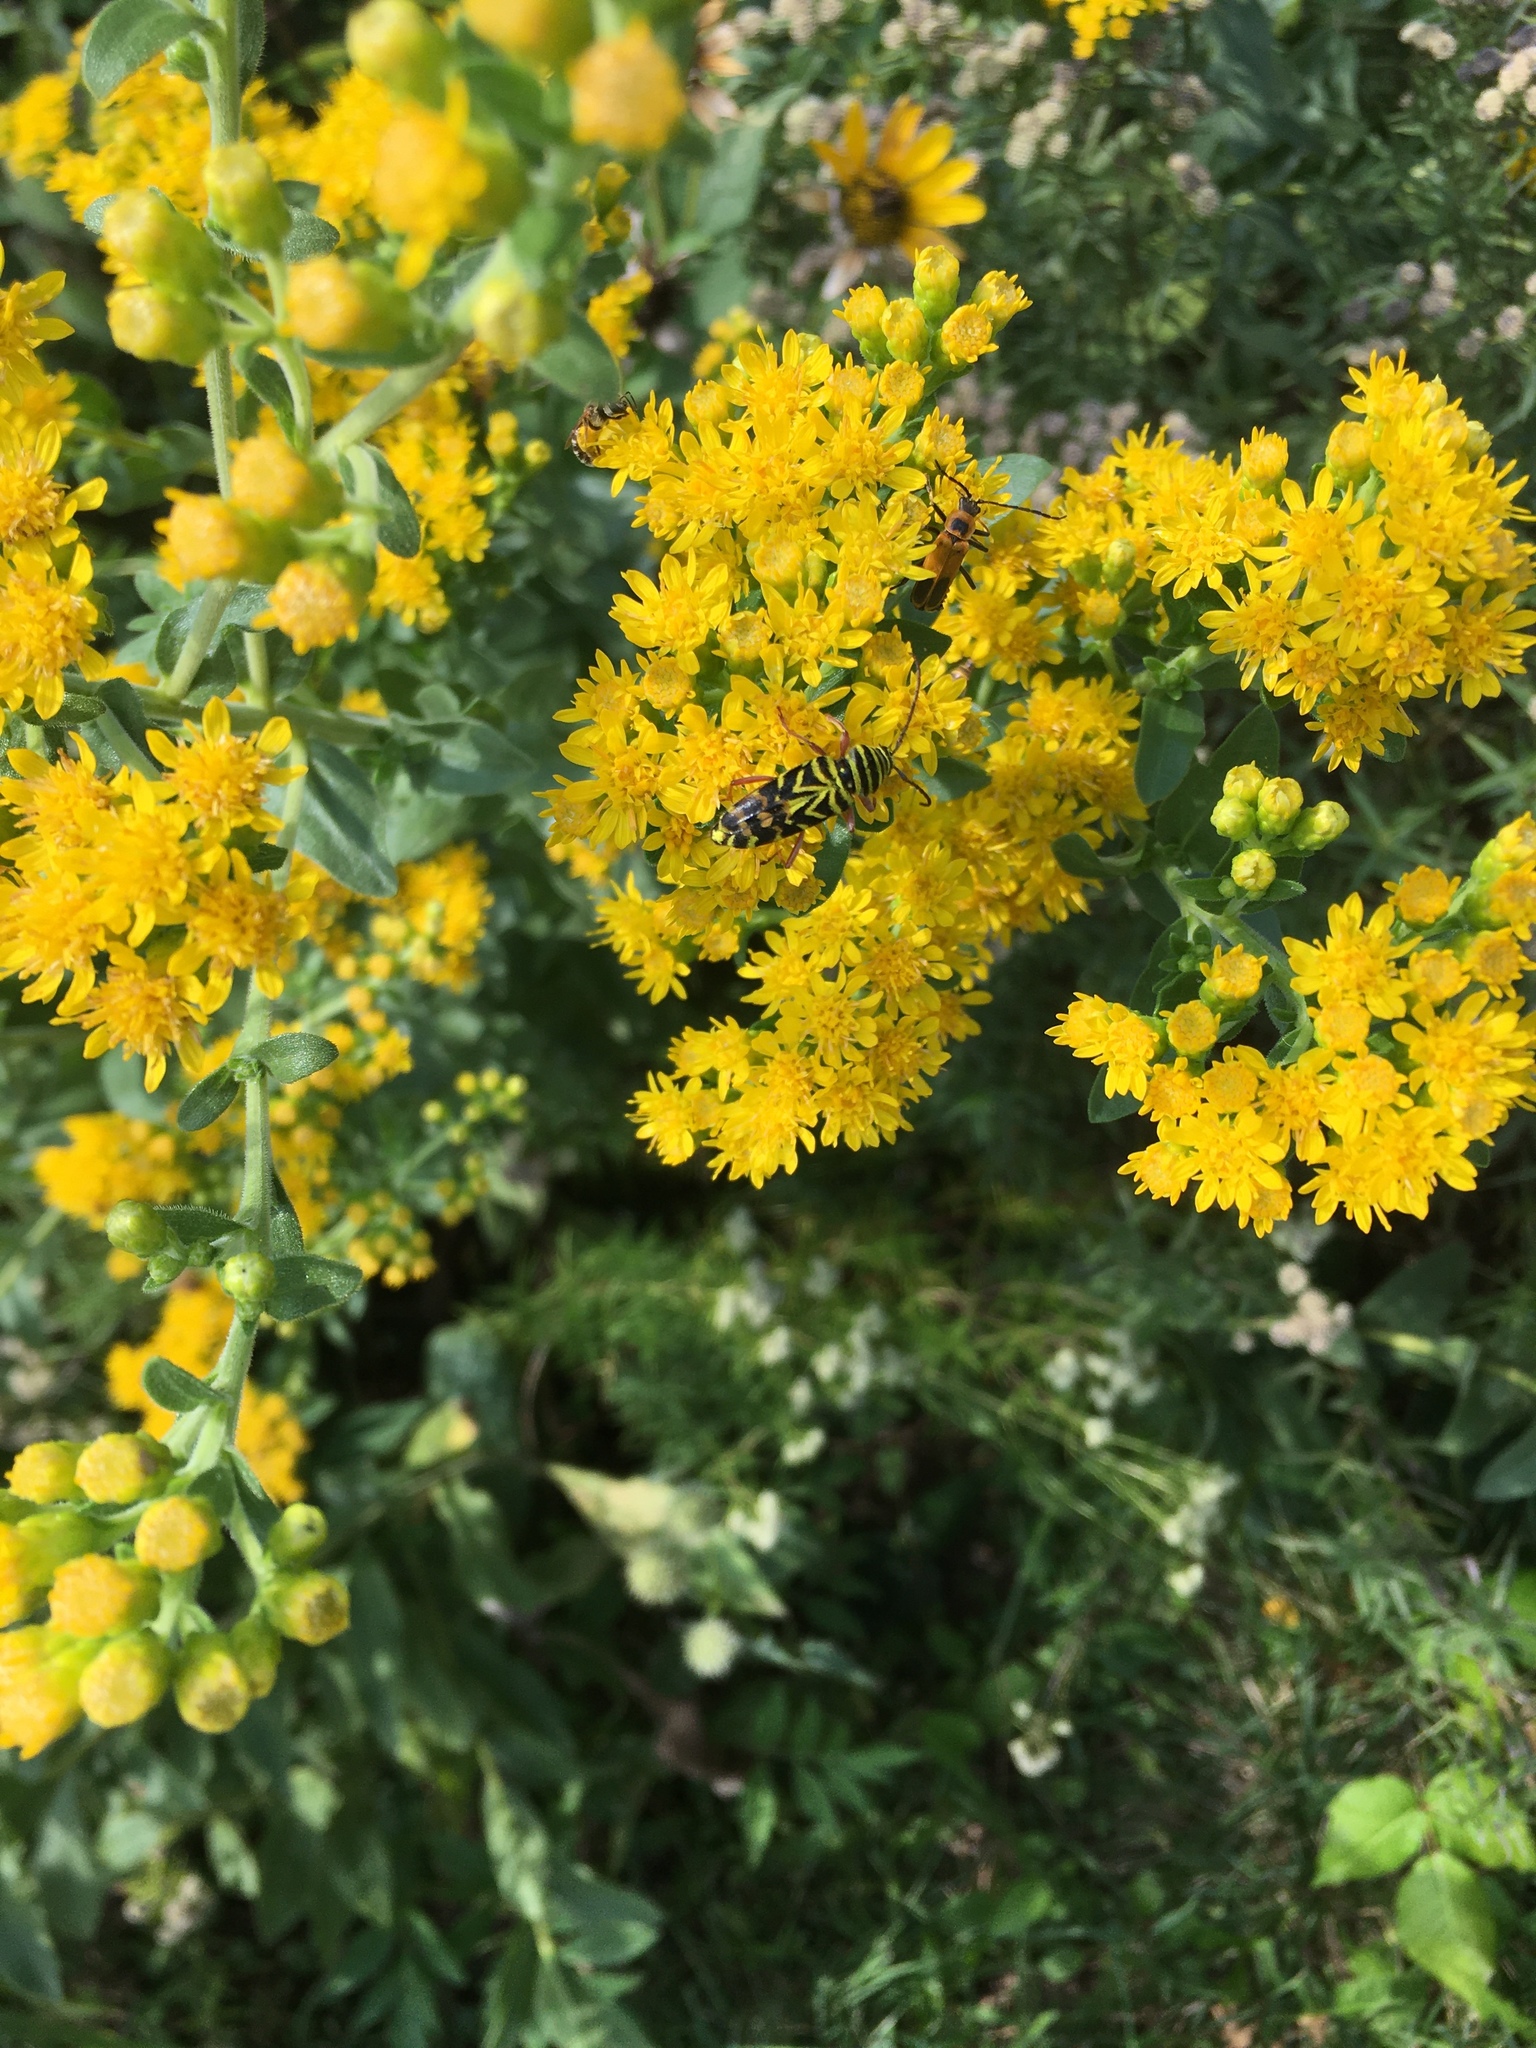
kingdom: Animalia
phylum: Arthropoda
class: Insecta
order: Coleoptera
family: Cerambycidae
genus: Megacyllene
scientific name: Megacyllene robiniae
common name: Locust borer
